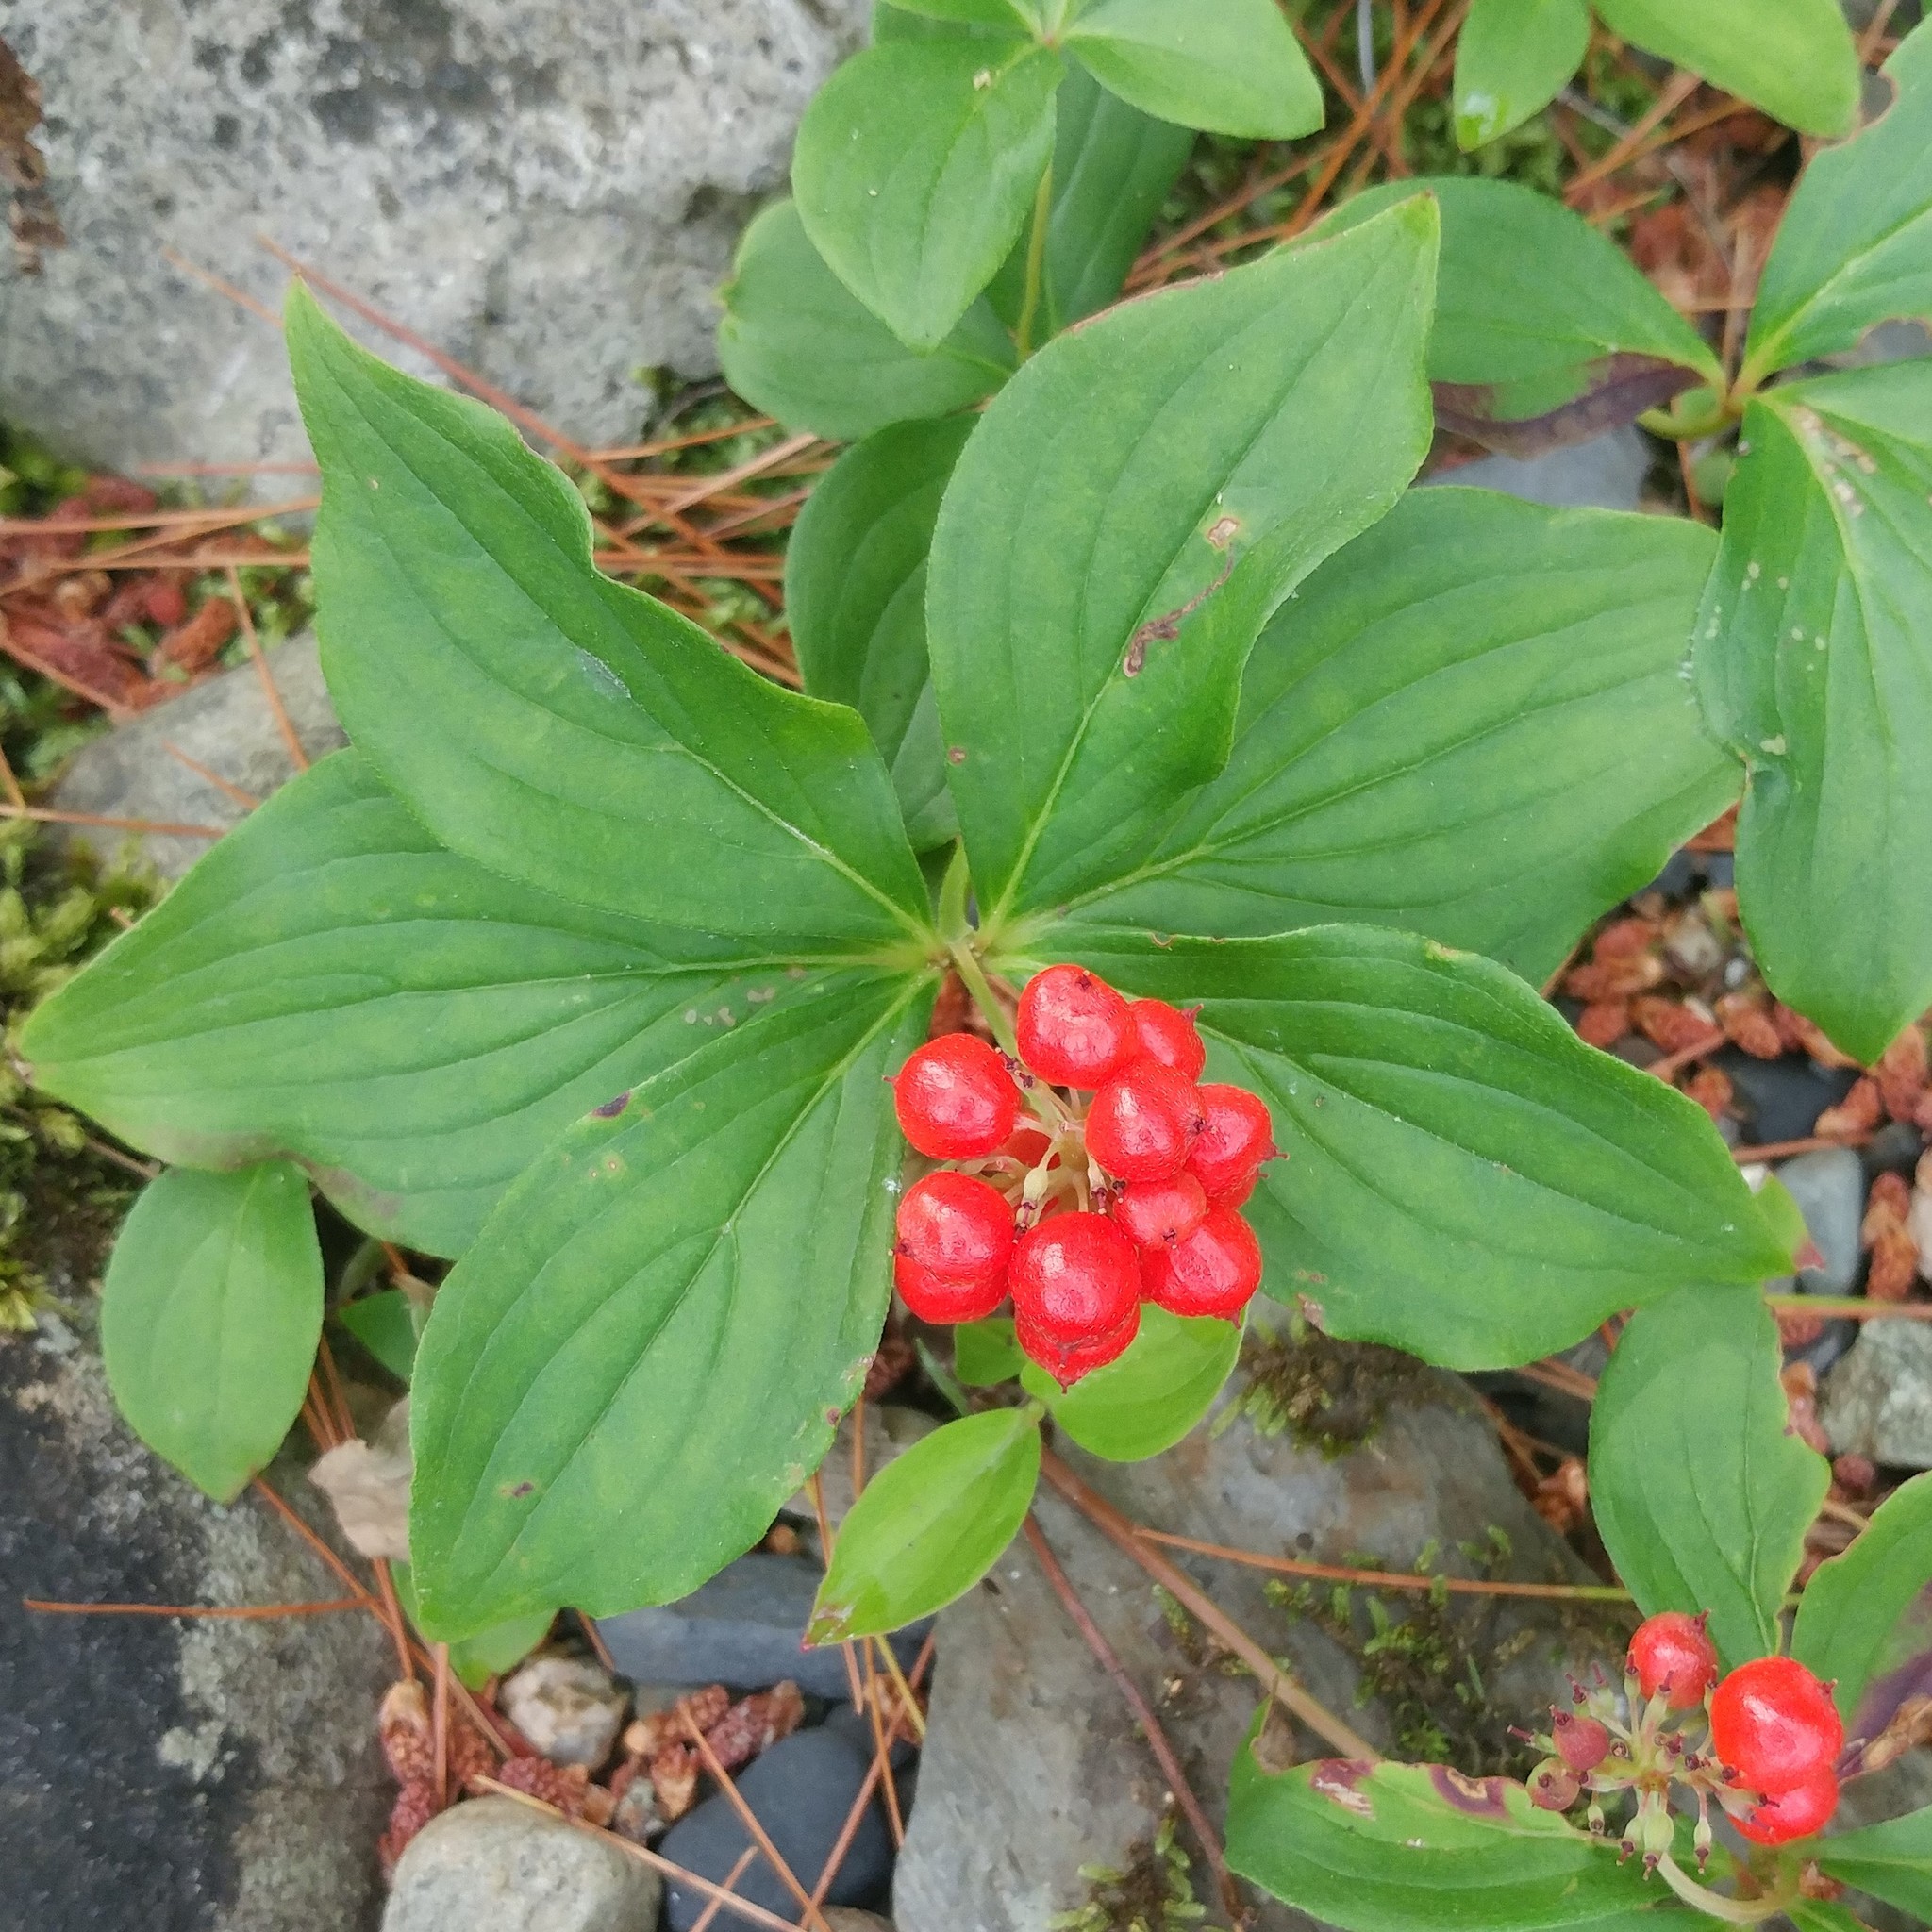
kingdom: Plantae
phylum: Tracheophyta
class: Magnoliopsida
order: Cornales
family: Cornaceae
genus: Cornus
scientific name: Cornus canadensis
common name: Creeping dogwood
